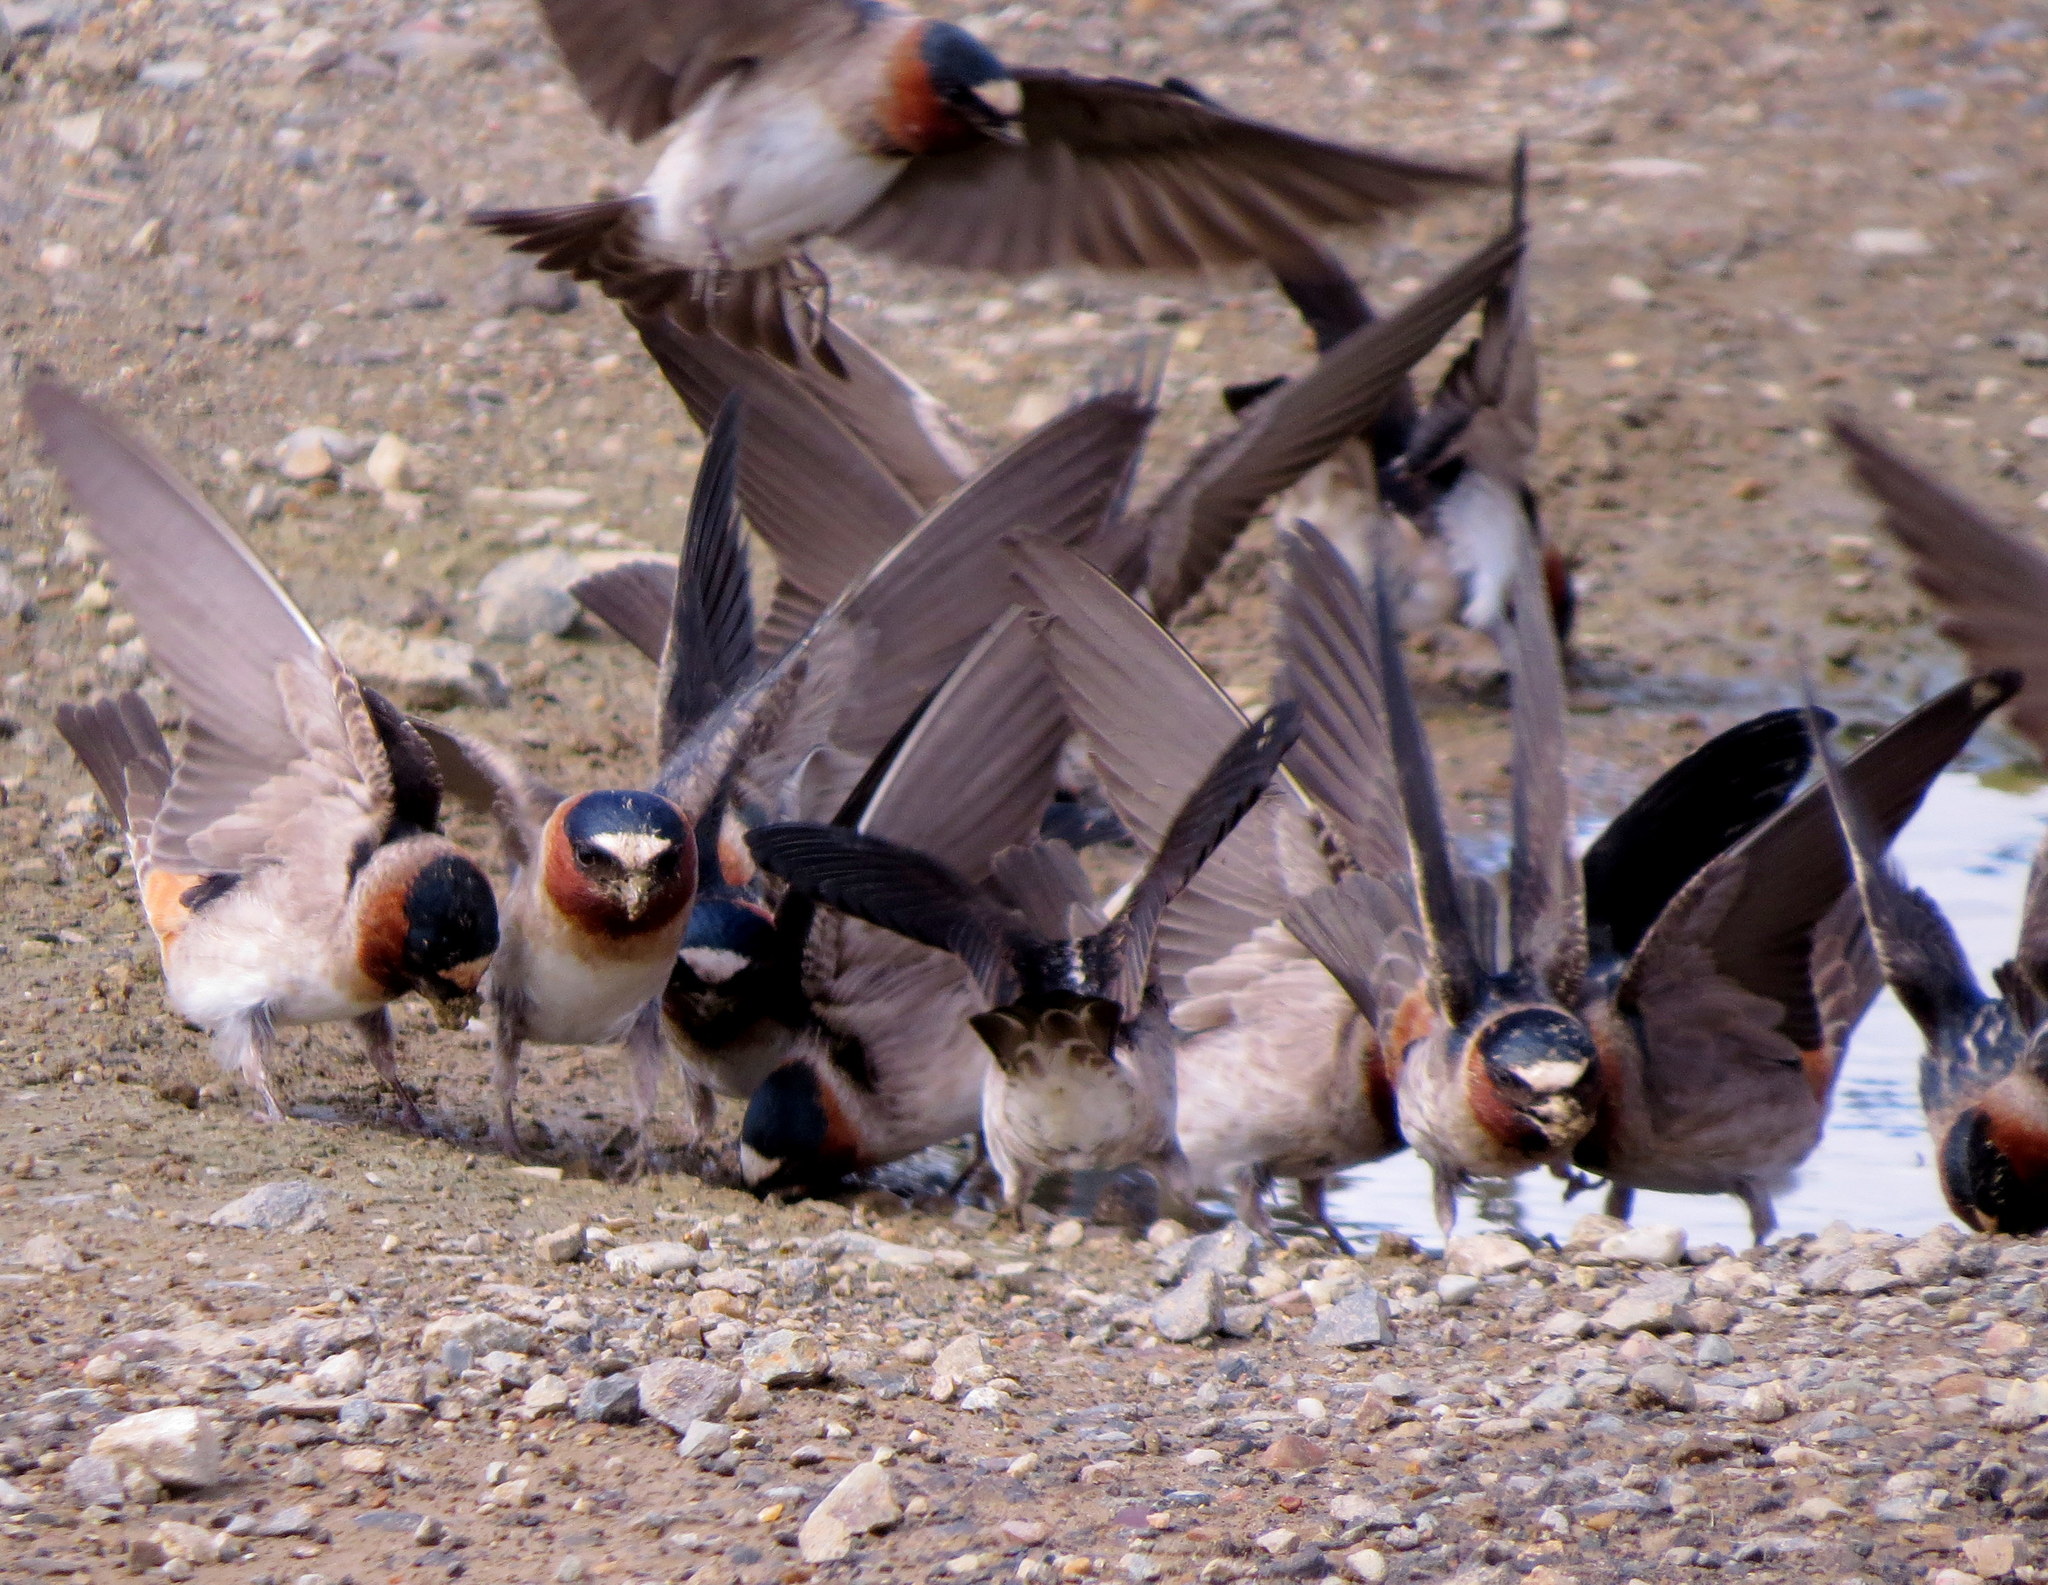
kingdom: Animalia
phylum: Chordata
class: Aves
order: Passeriformes
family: Hirundinidae
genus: Petrochelidon
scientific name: Petrochelidon pyrrhonota
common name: American cliff swallow
